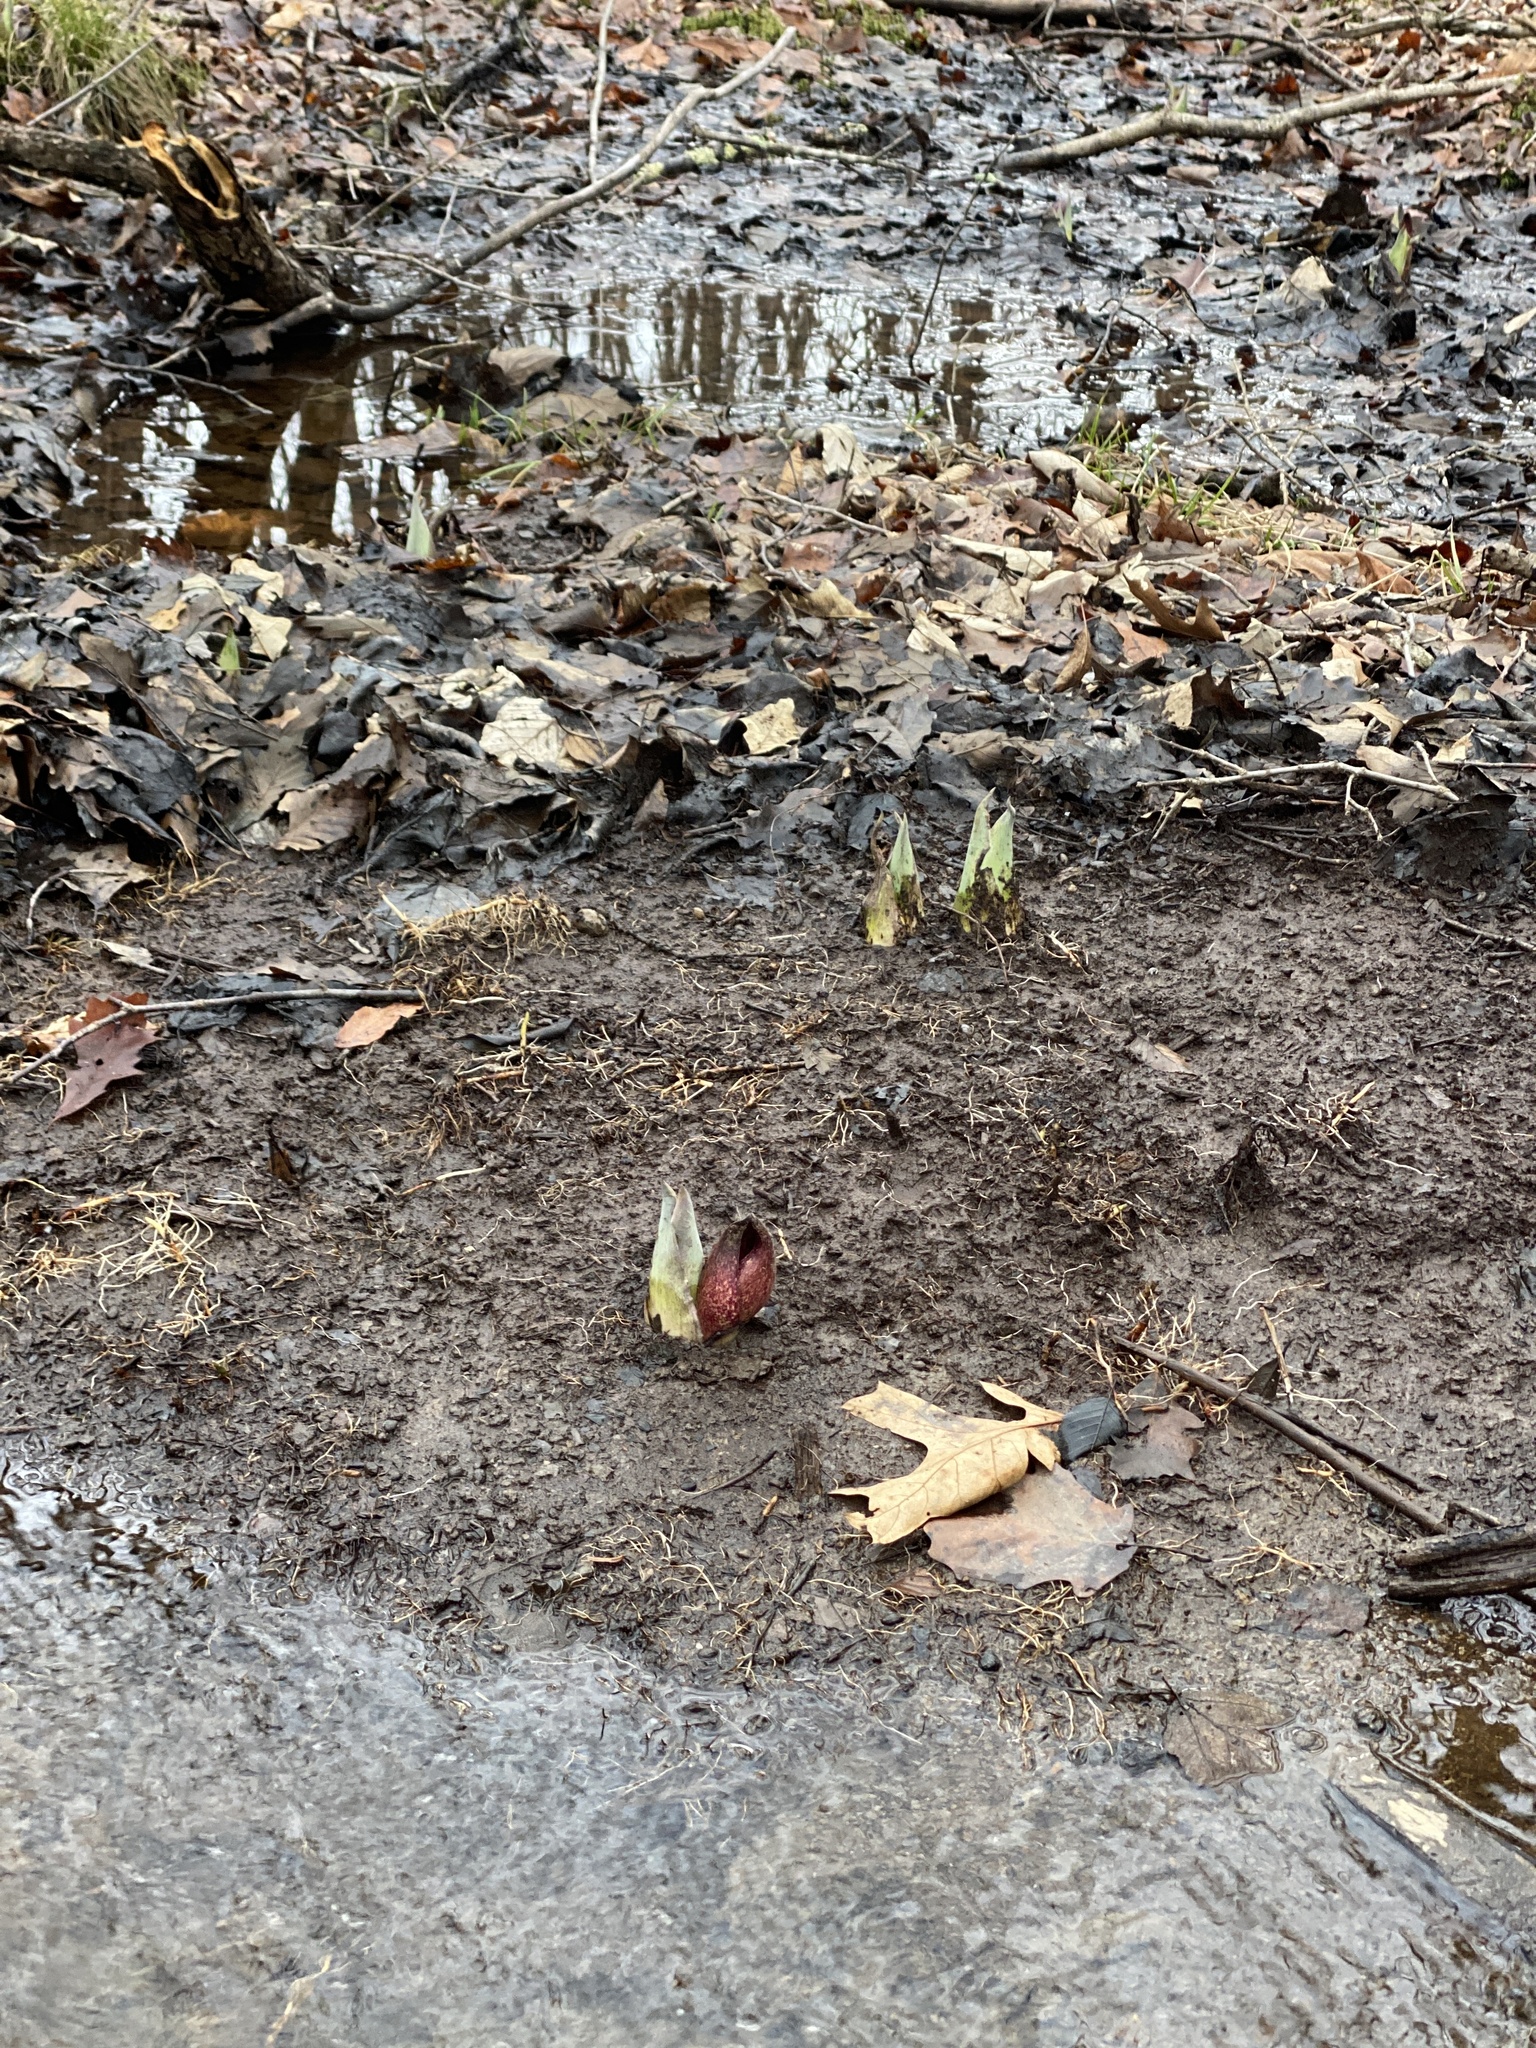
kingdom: Plantae
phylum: Tracheophyta
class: Liliopsida
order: Alismatales
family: Araceae
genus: Symplocarpus
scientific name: Symplocarpus foetidus
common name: Eastern skunk cabbage
